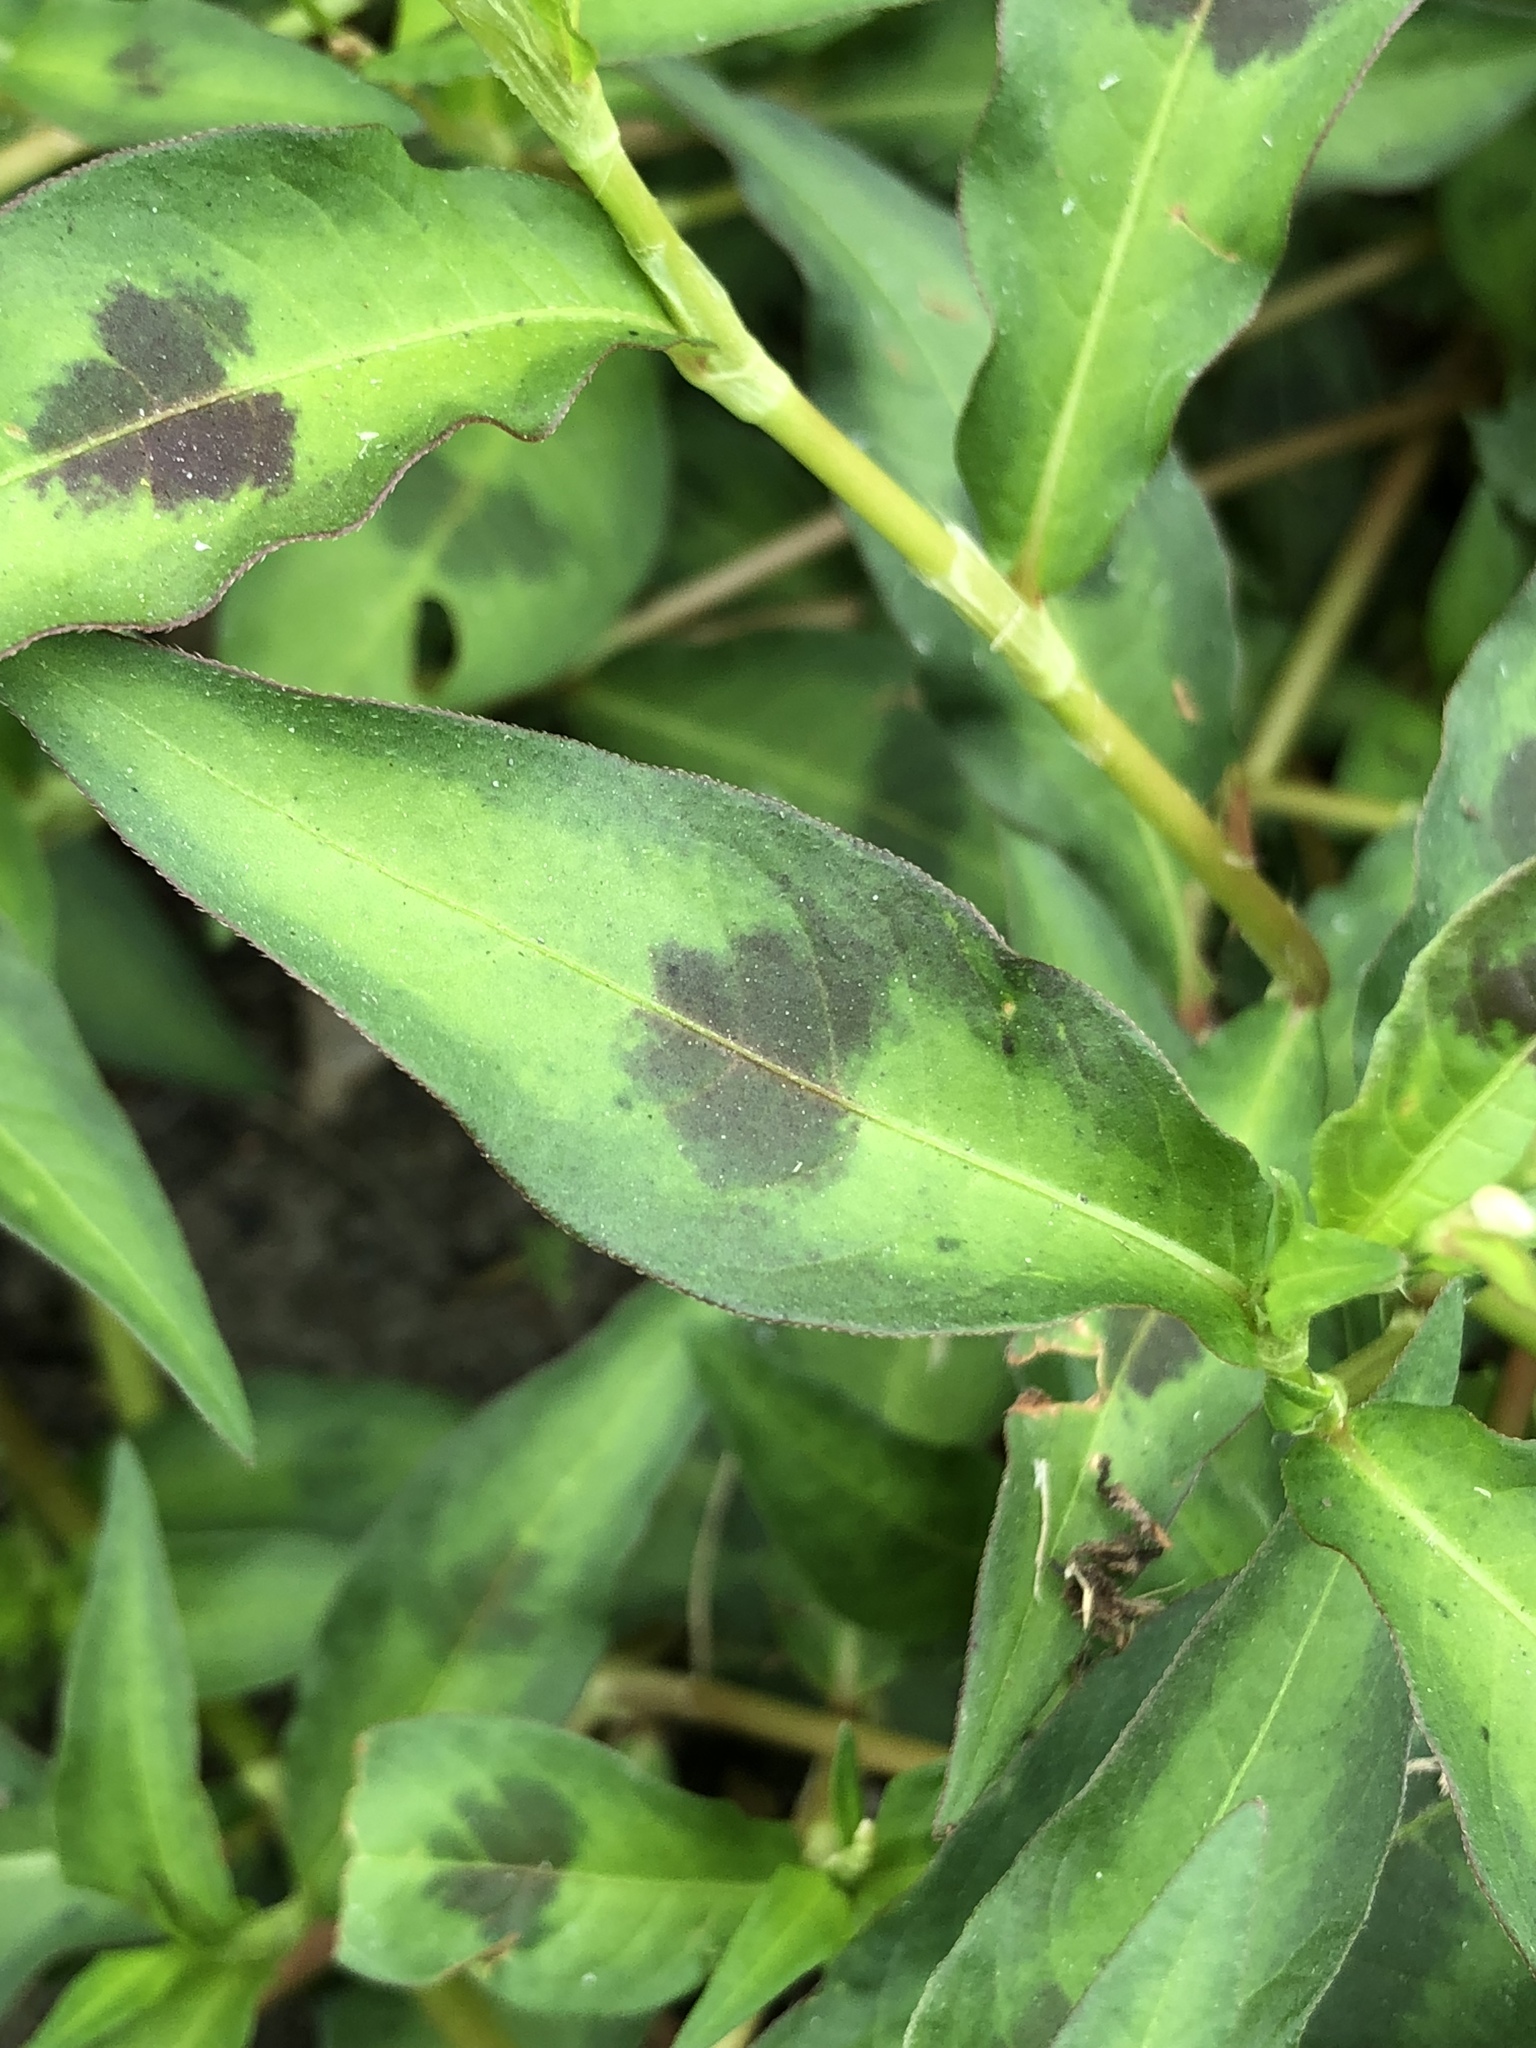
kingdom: Plantae
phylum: Tracheophyta
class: Magnoliopsida
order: Caryophyllales
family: Polygonaceae
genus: Persicaria
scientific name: Persicaria maculosa
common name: Redshank
